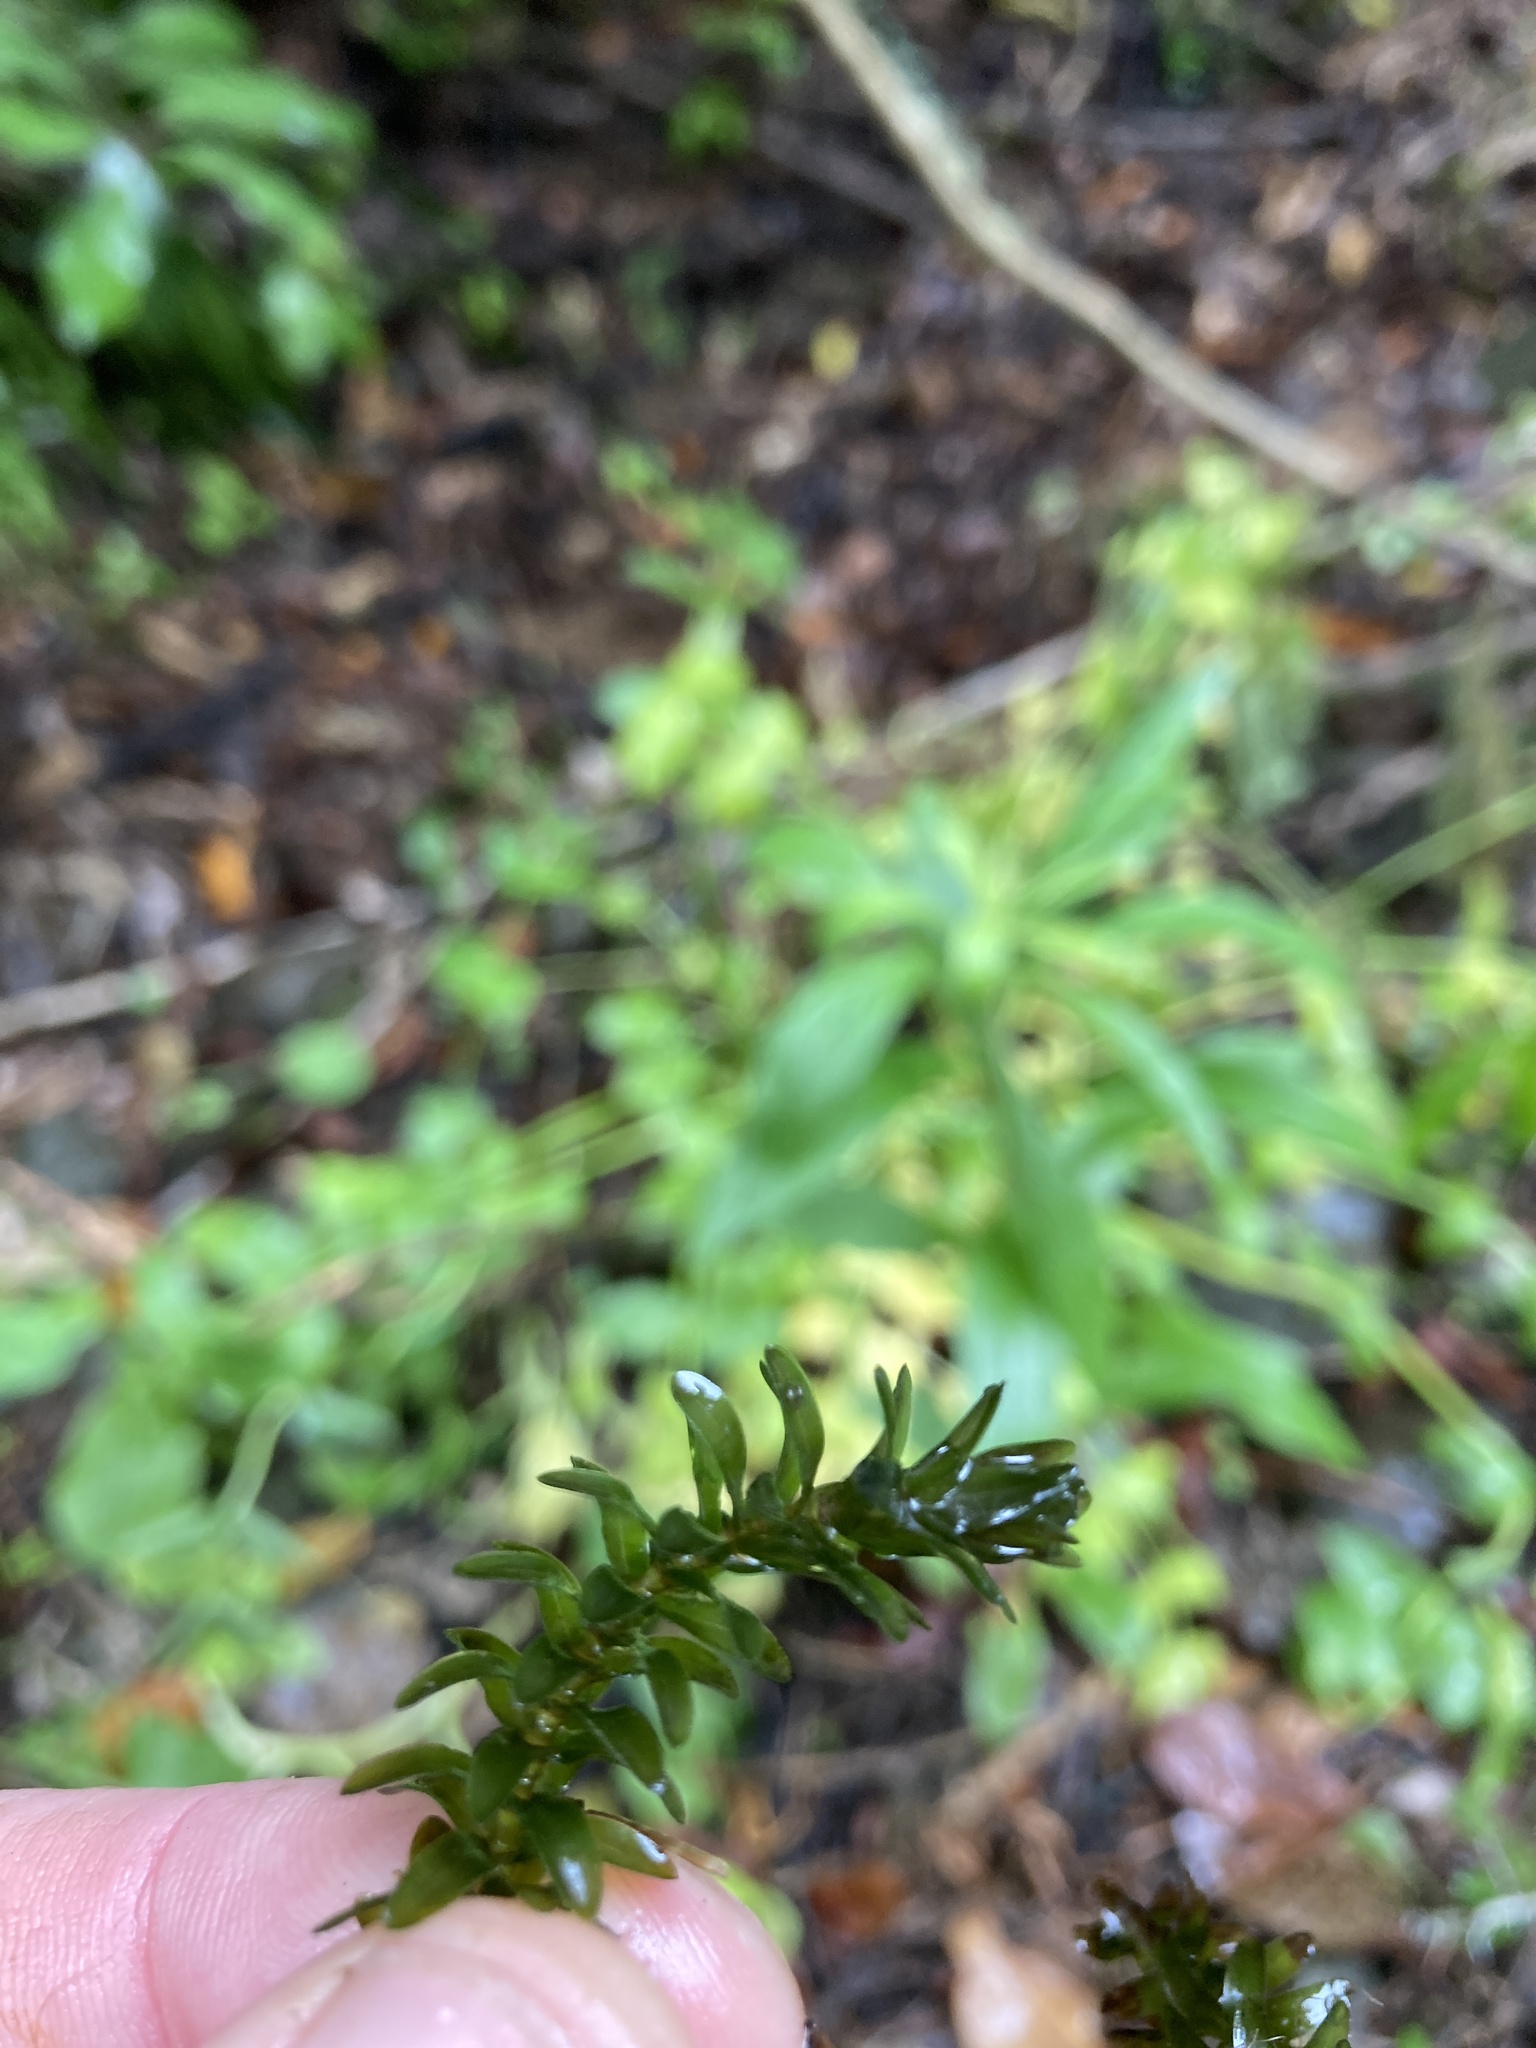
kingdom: Plantae
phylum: Tracheophyta
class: Liliopsida
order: Alismatales
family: Hydrocharitaceae
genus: Elodea
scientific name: Elodea canadensis
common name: Canadian waterweed
